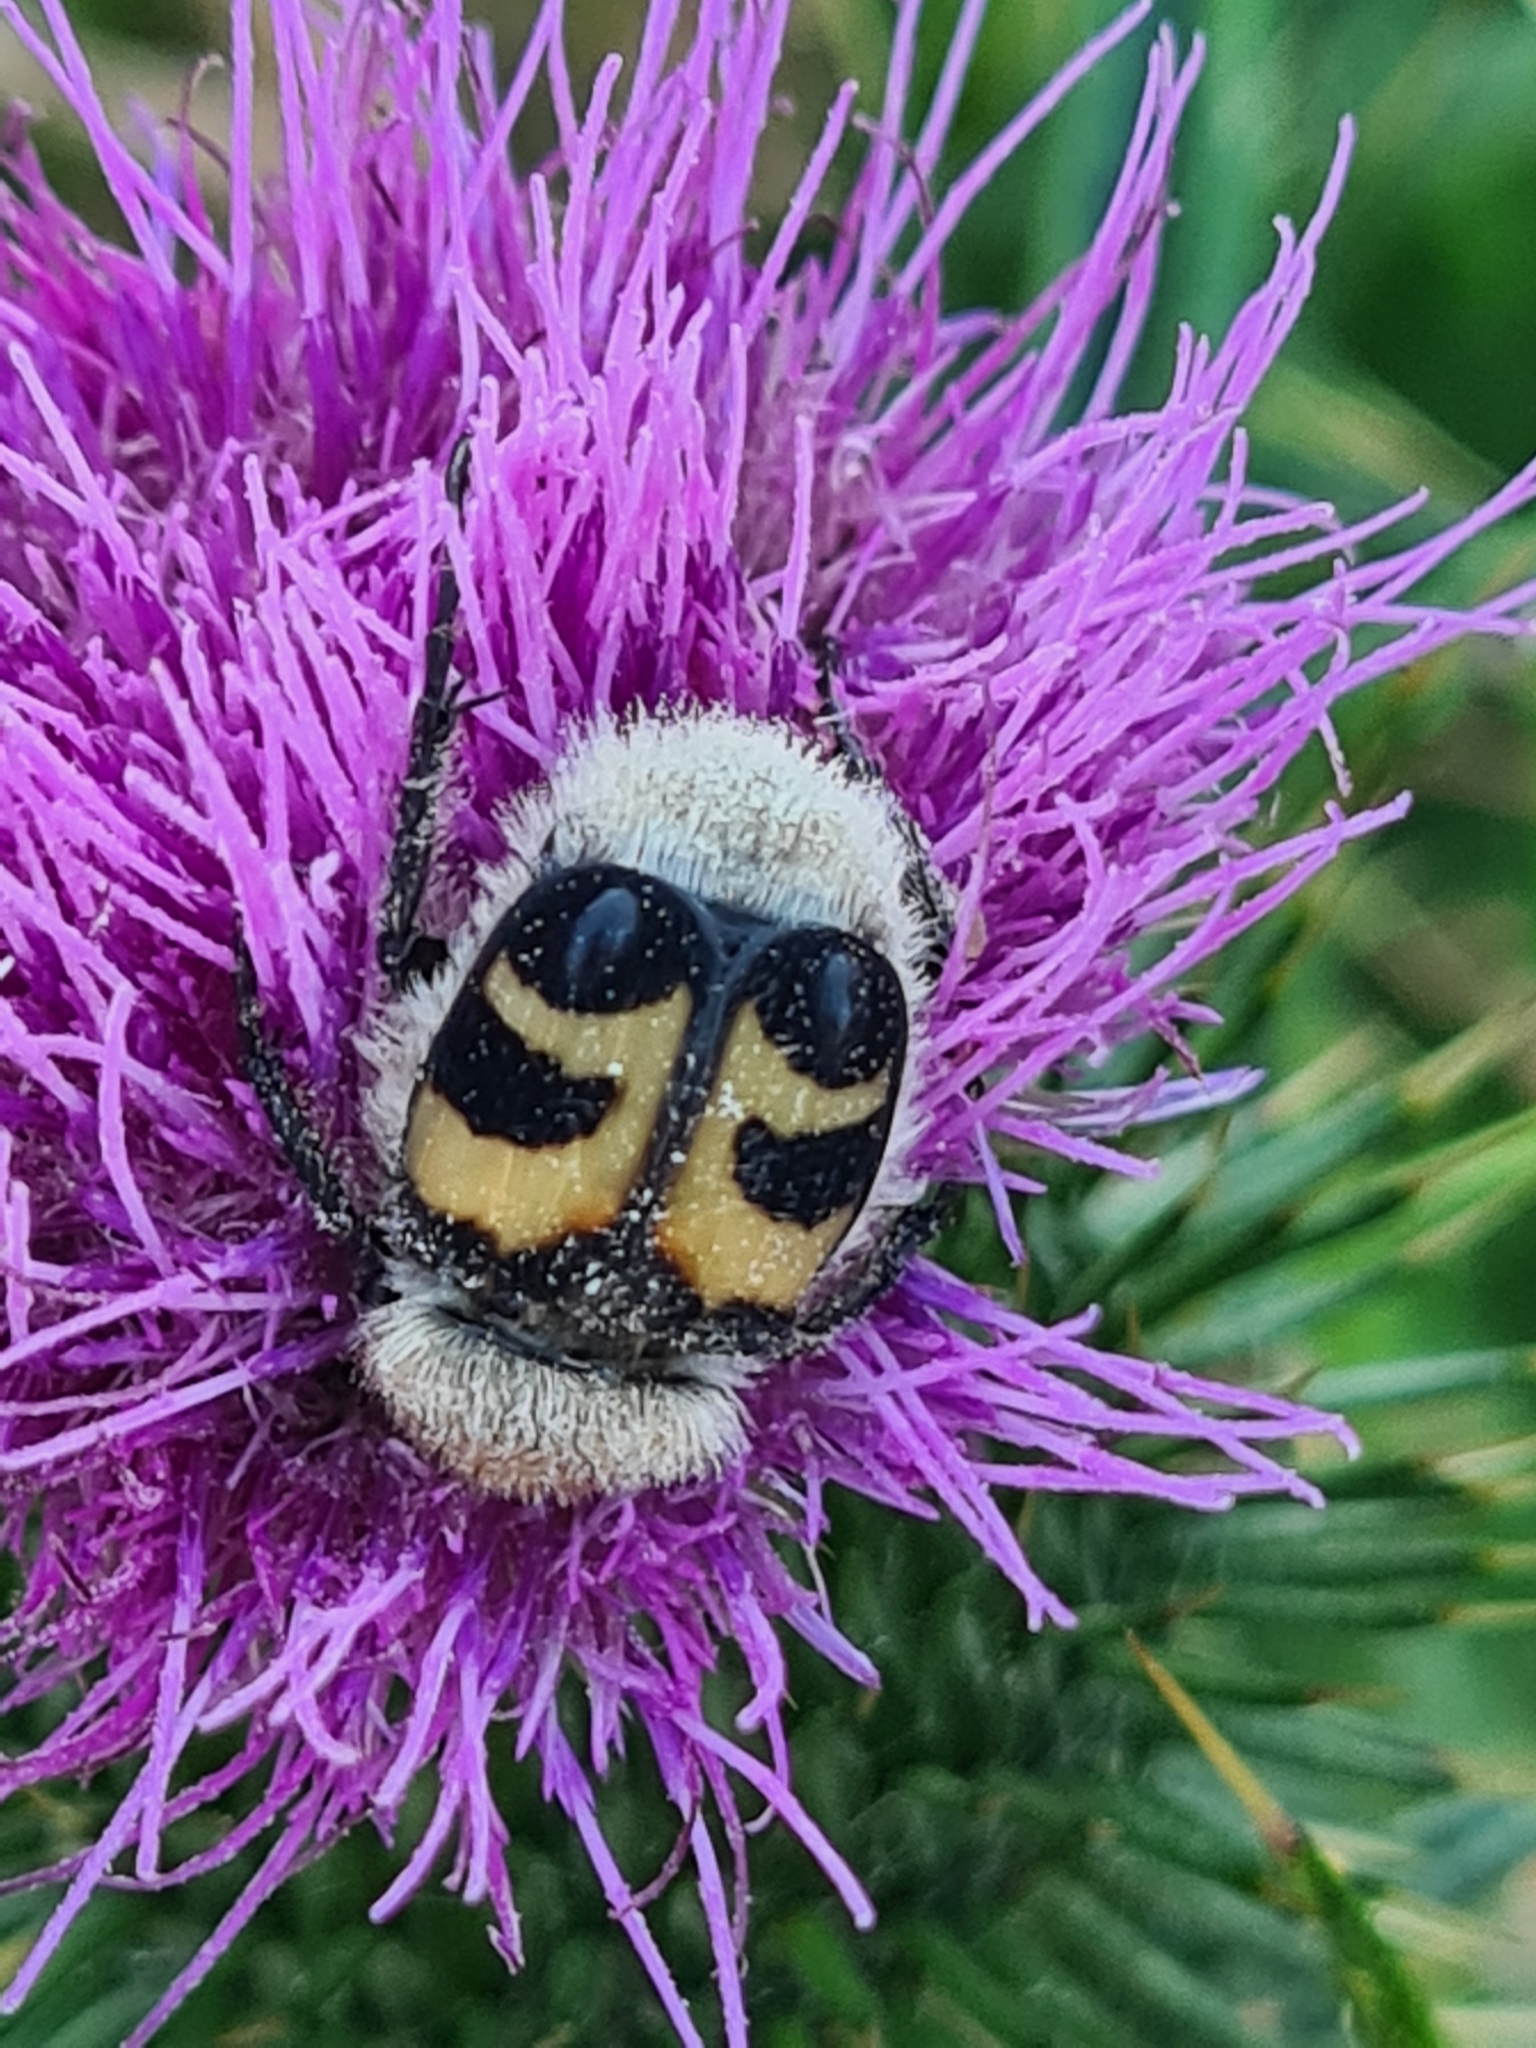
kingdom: Animalia
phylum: Arthropoda
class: Insecta
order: Coleoptera
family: Scarabaeidae
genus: Trichius
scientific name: Trichius fasciatus
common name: Bee beetle
